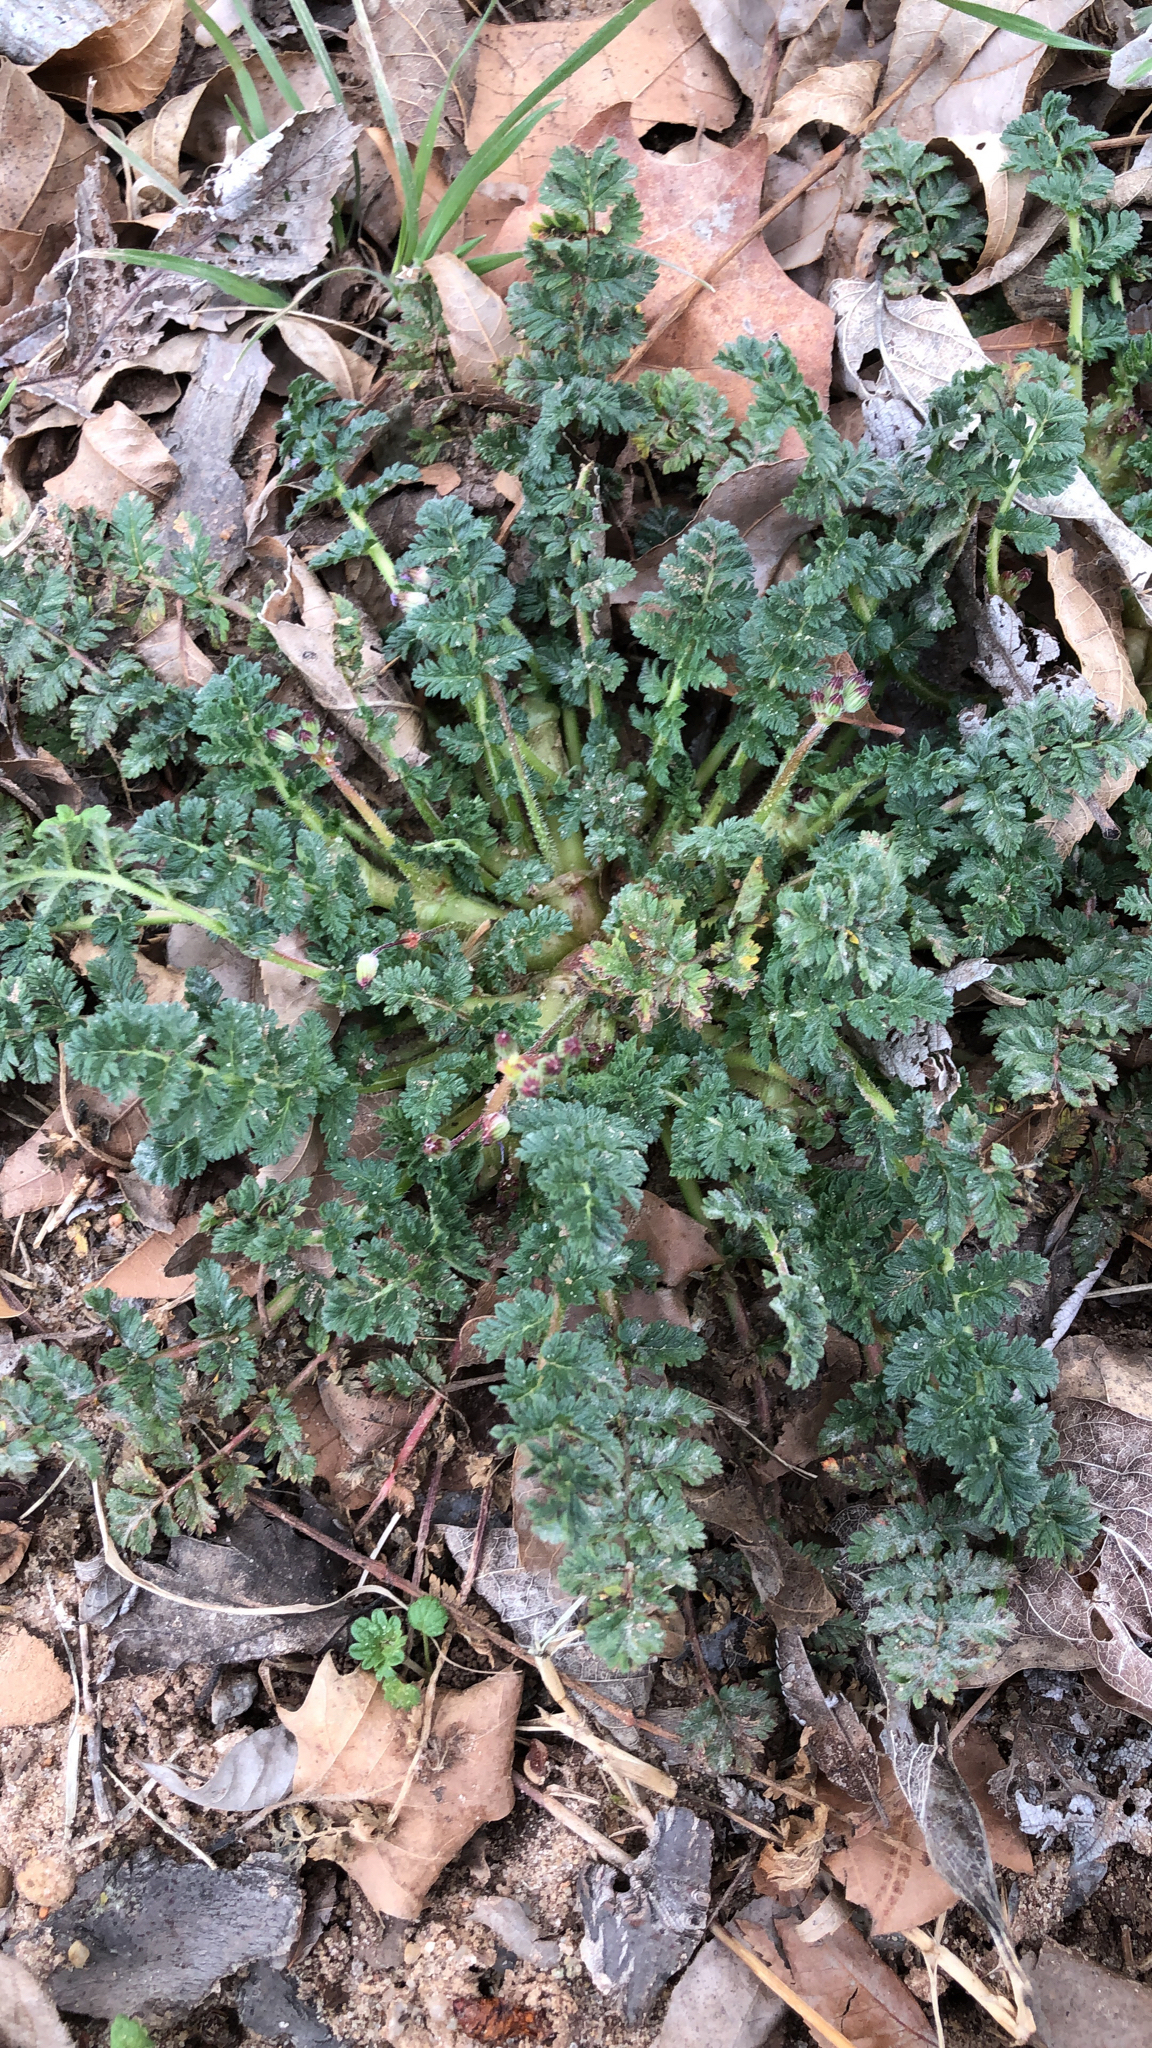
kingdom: Plantae
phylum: Tracheophyta
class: Magnoliopsida
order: Geraniales
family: Geraniaceae
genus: Erodium
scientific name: Erodium cicutarium
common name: Common stork's-bill
